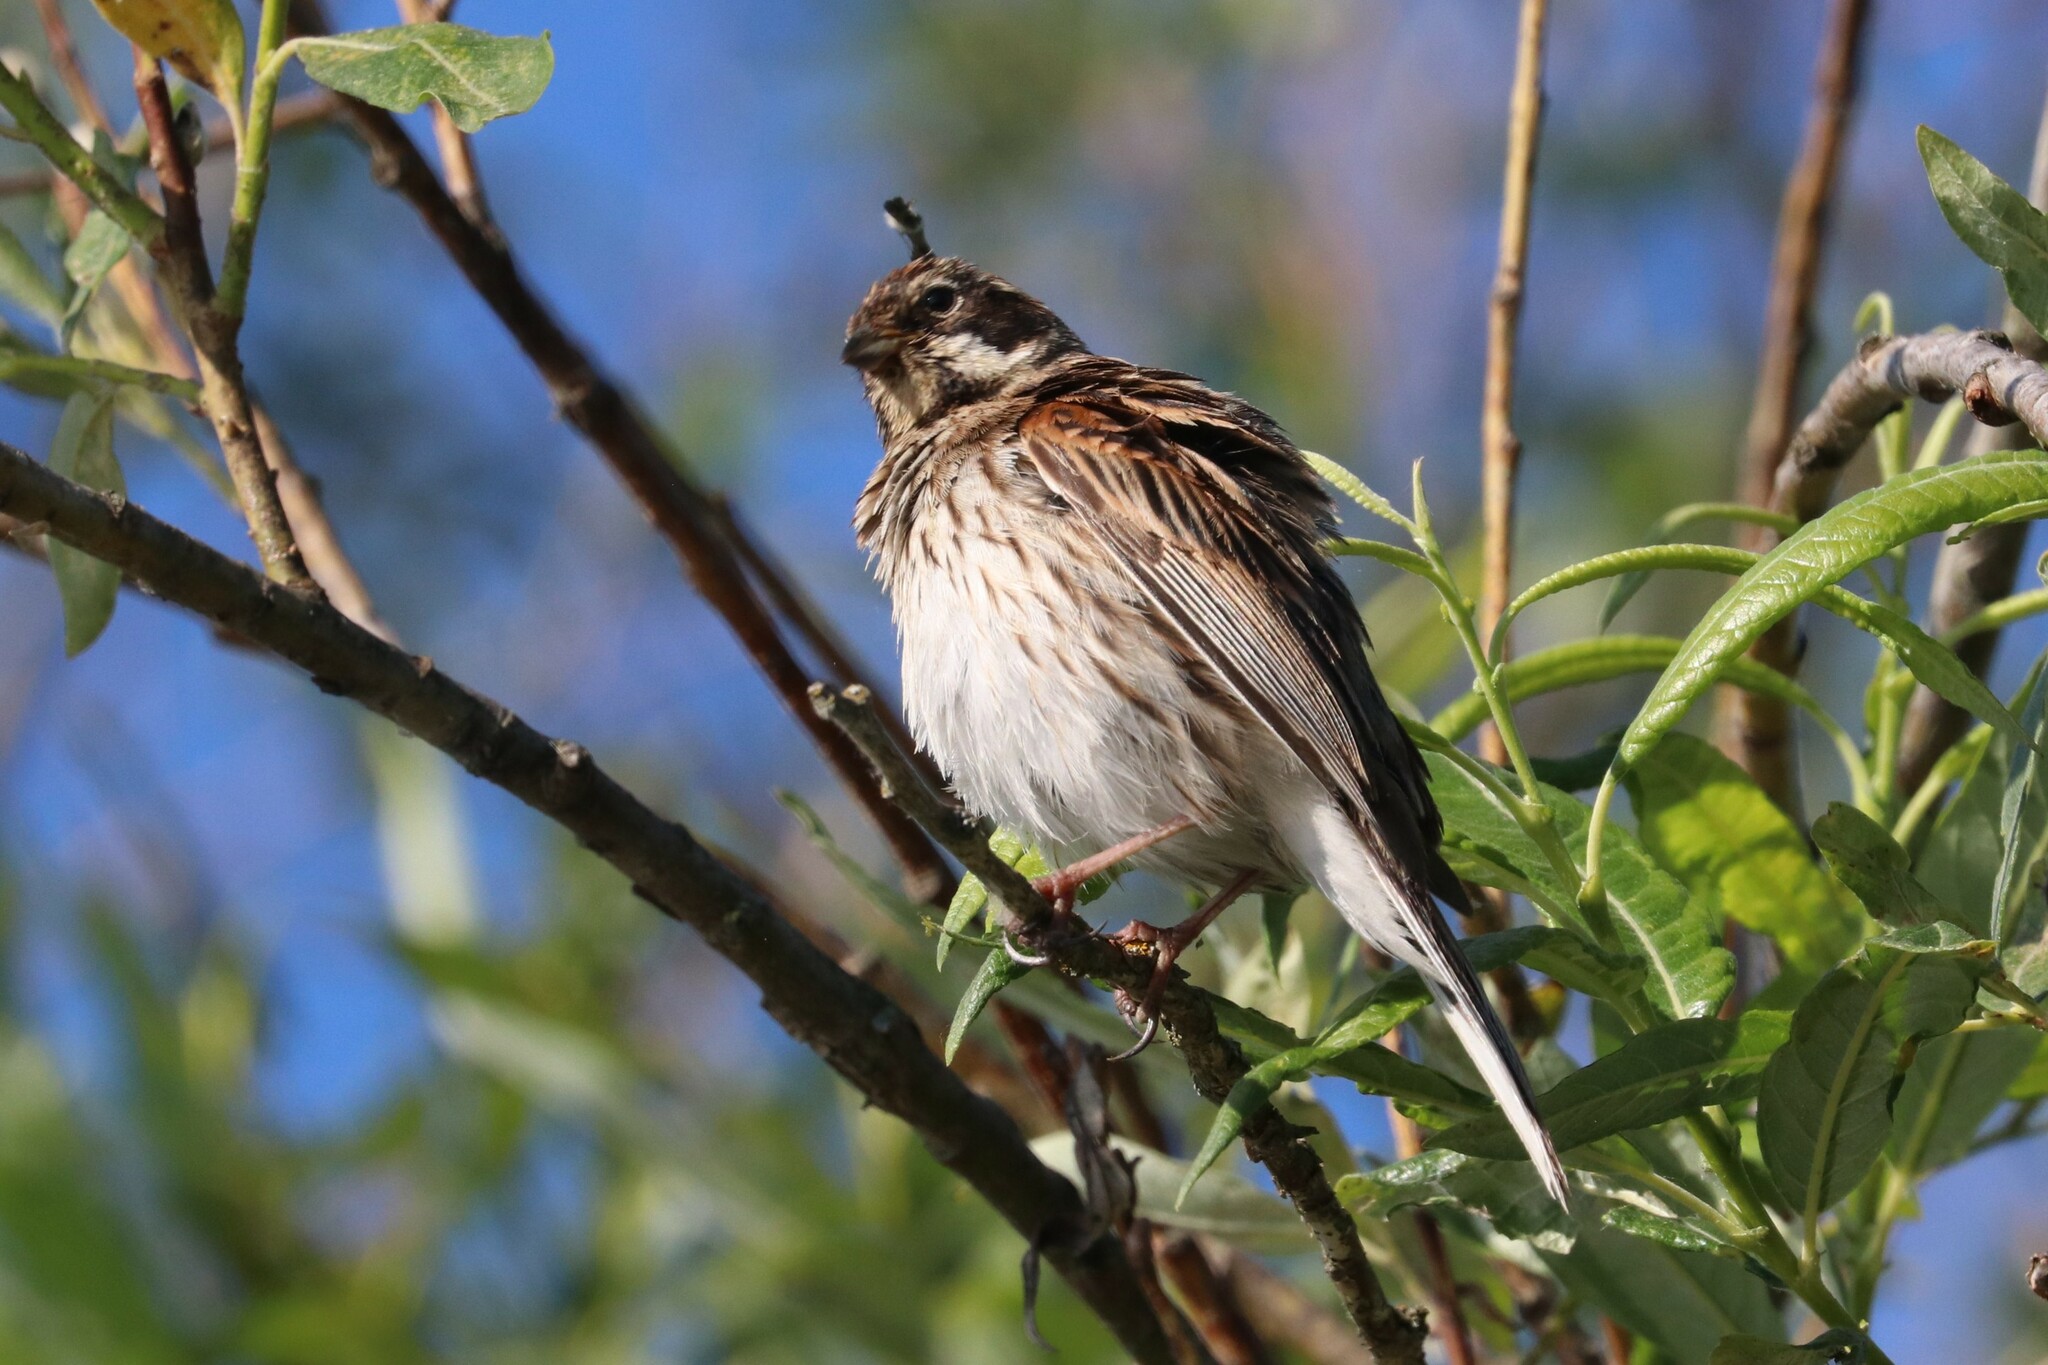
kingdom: Animalia
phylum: Chordata
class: Aves
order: Passeriformes
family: Emberizidae
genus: Emberiza
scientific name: Emberiza schoeniclus
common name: Reed bunting
